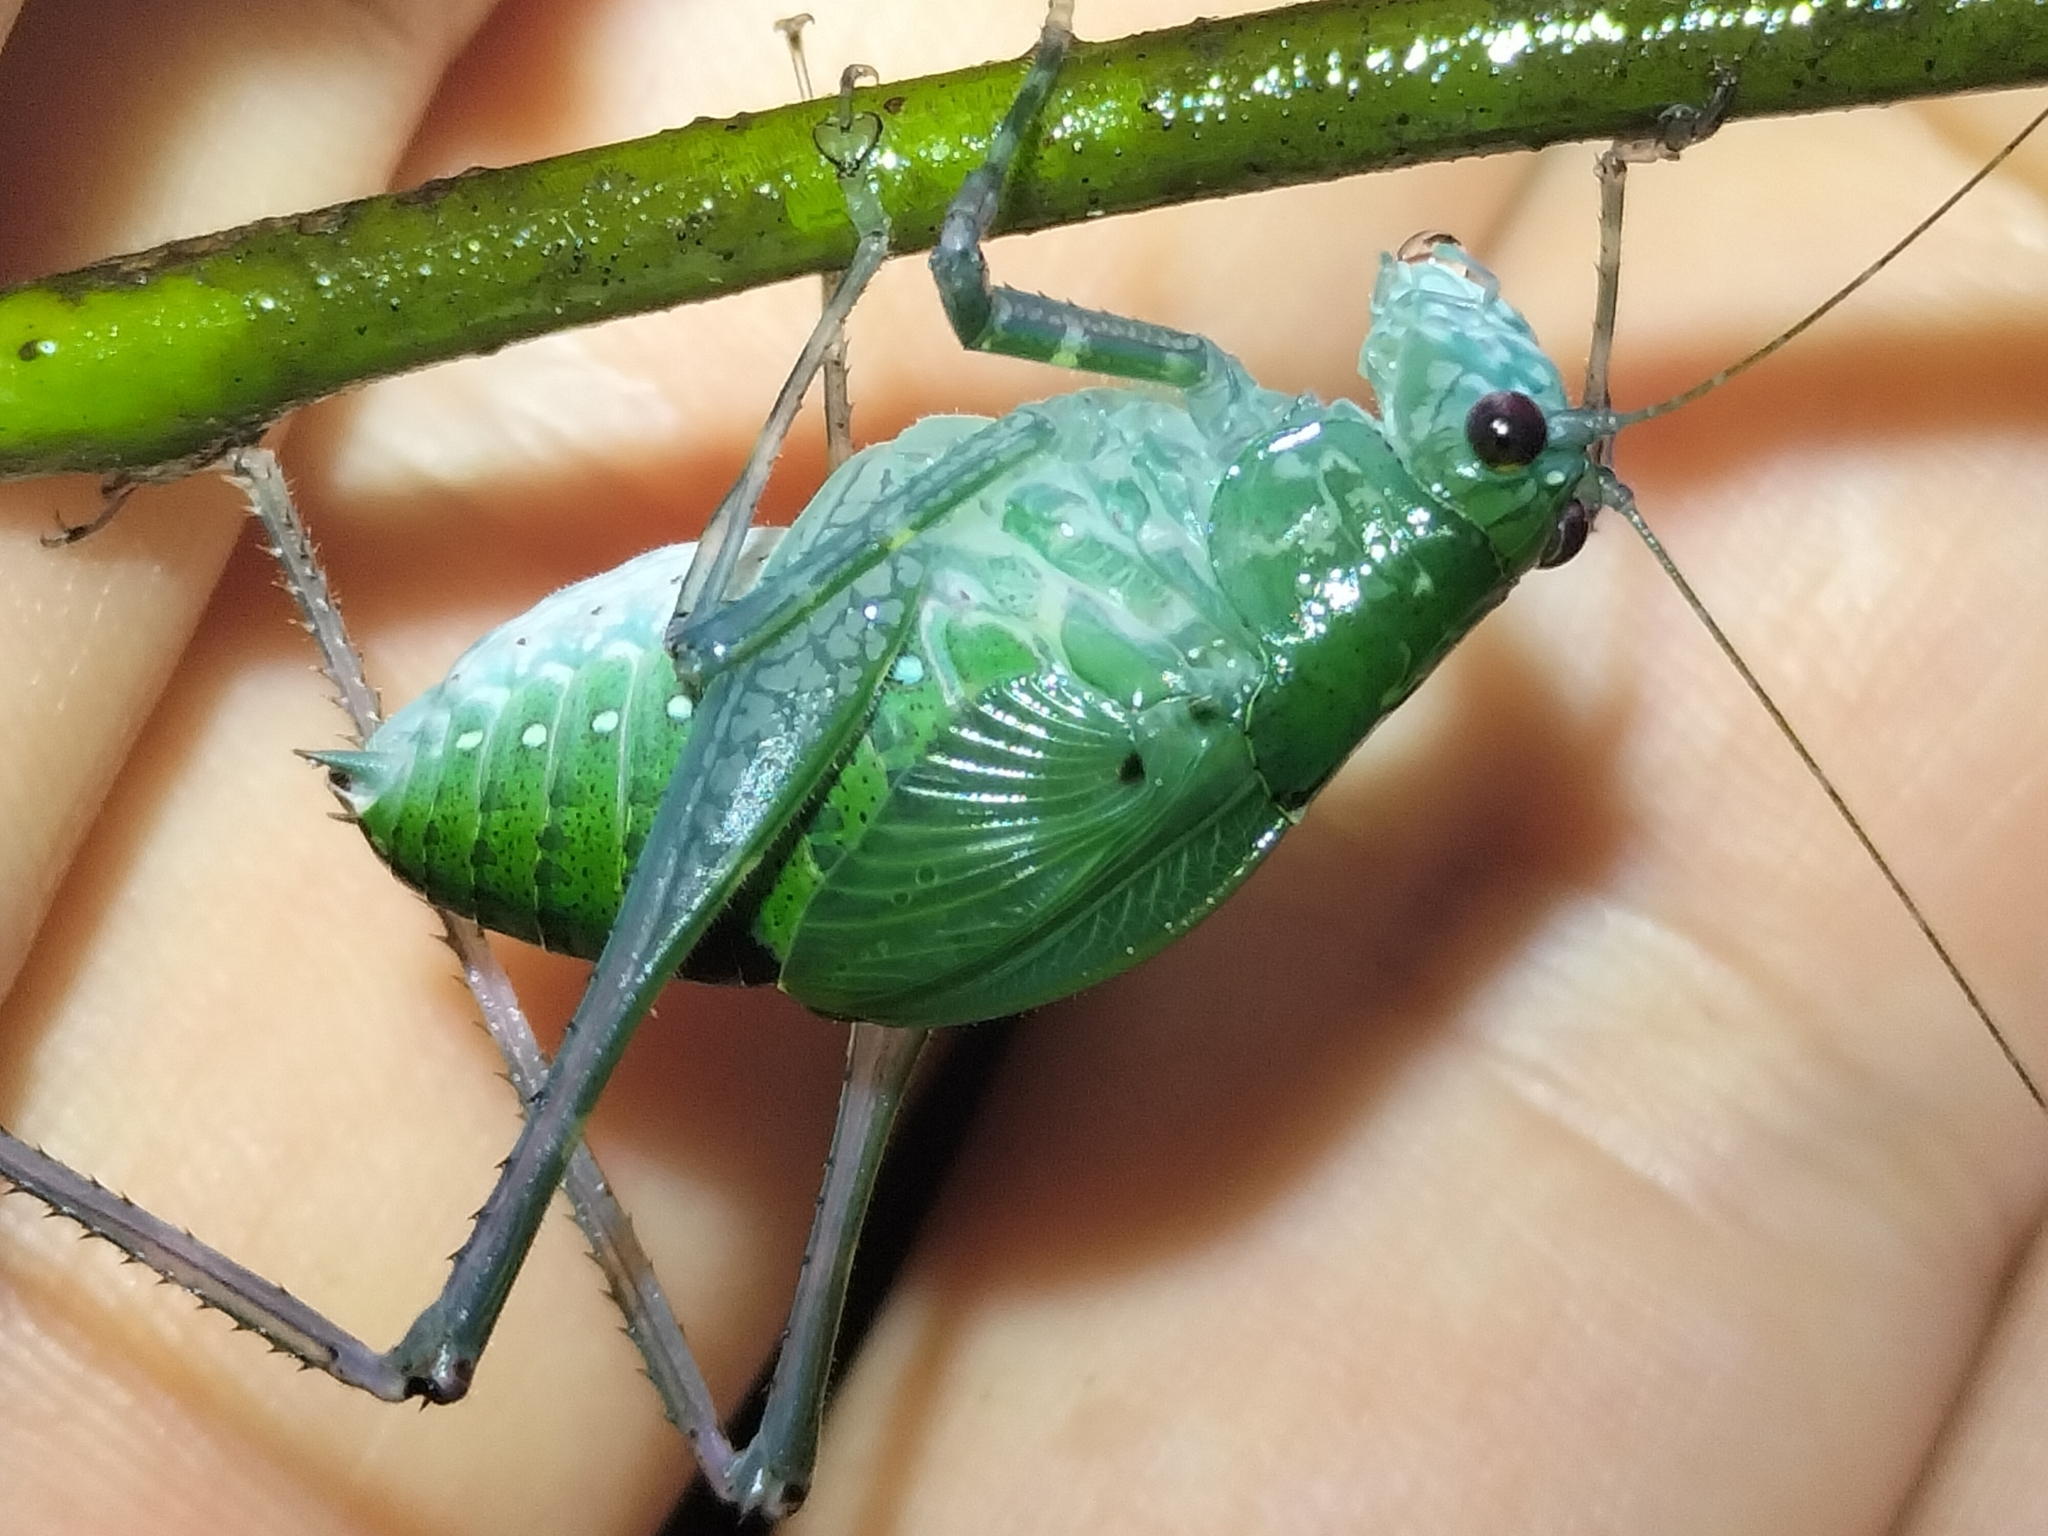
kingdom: Animalia
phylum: Arthropoda
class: Insecta
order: Orthoptera
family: Tettigoniidae
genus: Caedicia
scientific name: Caedicia webberi
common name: Webber's caedicia
